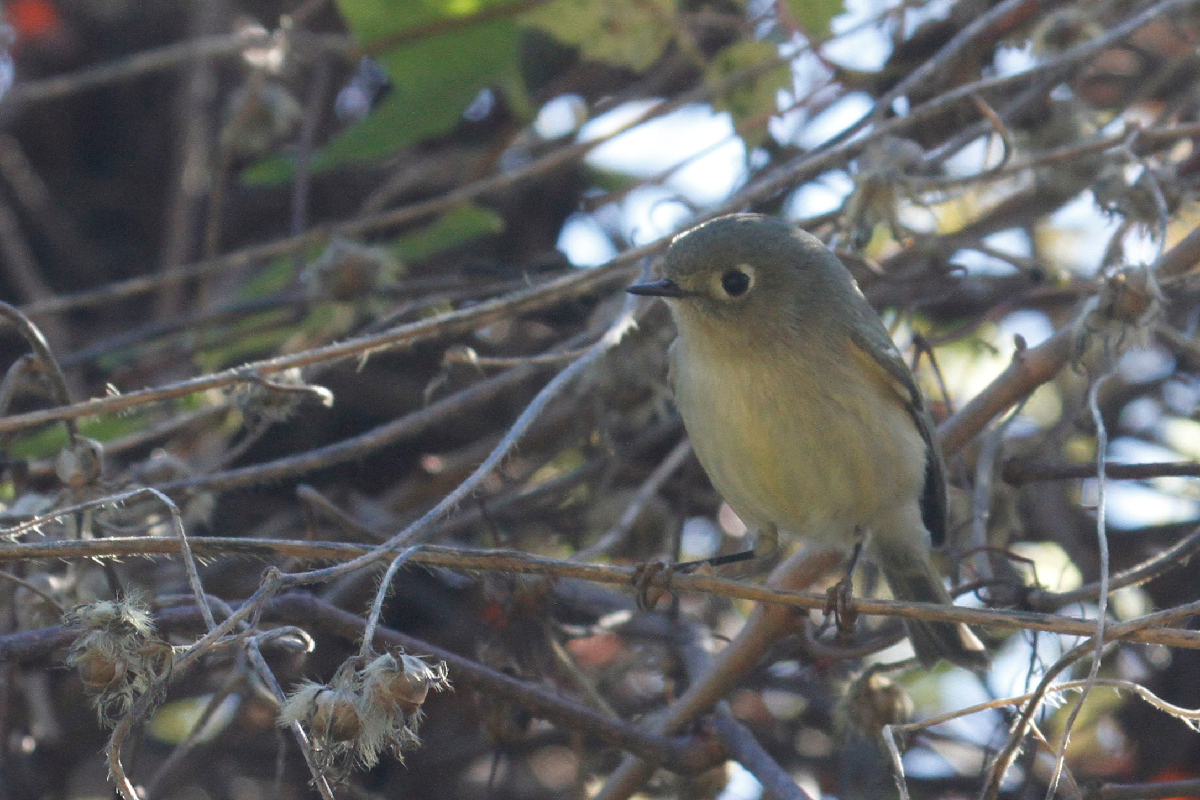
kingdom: Animalia
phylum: Chordata
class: Aves
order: Passeriformes
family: Regulidae
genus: Regulus
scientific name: Regulus calendula
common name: Ruby-crowned kinglet
